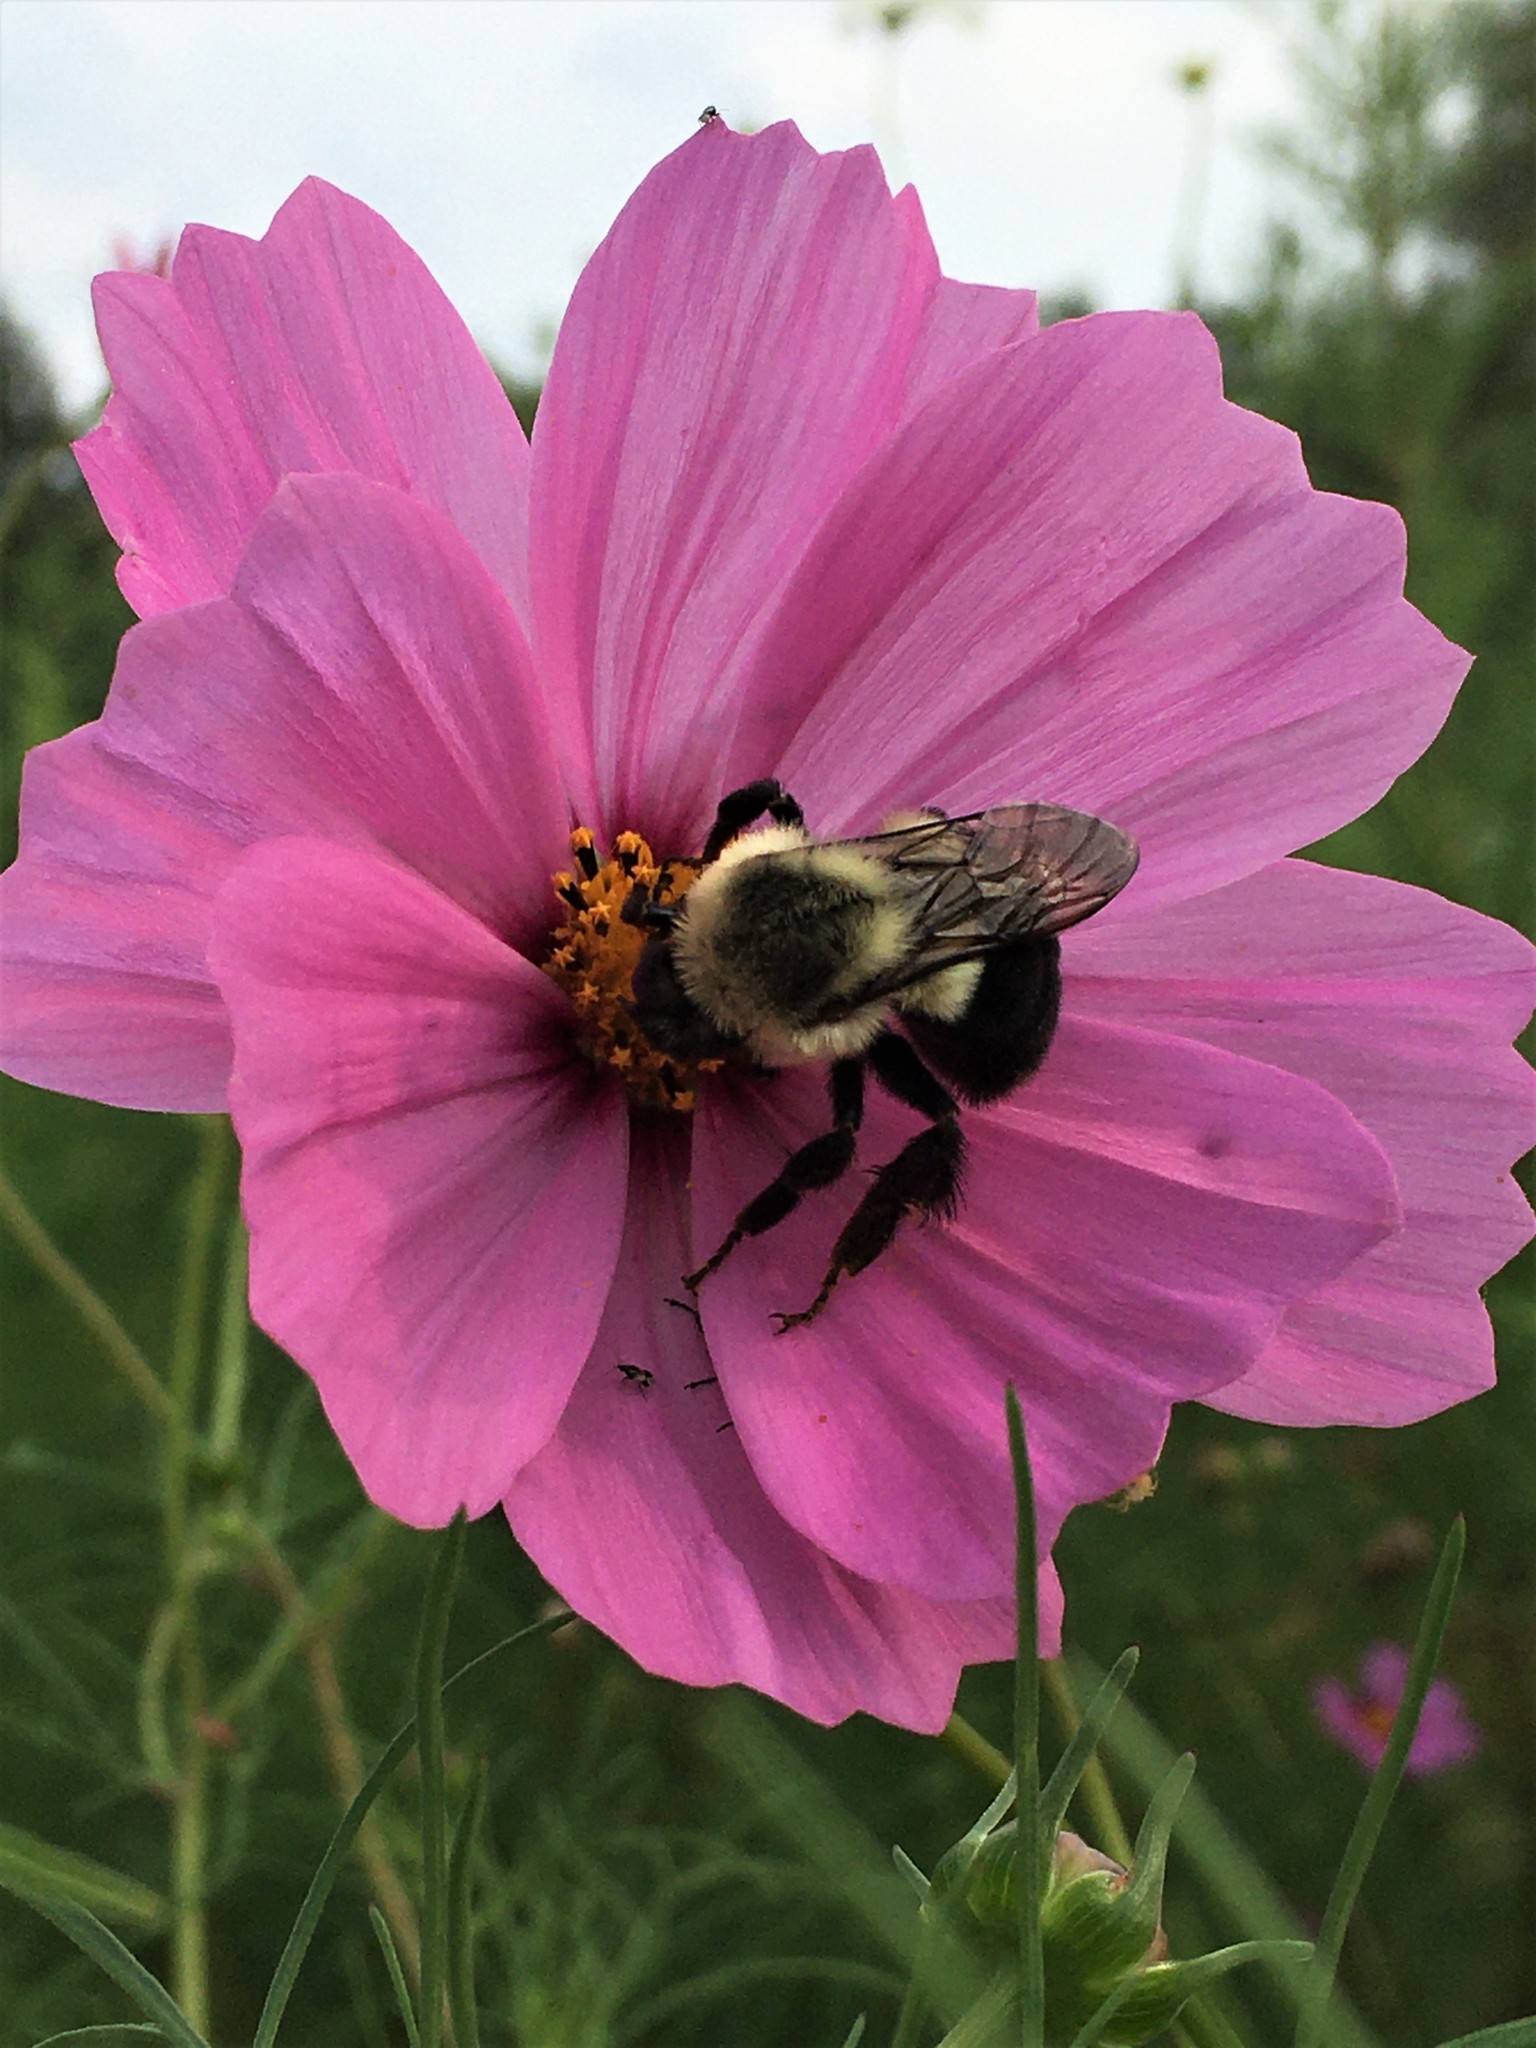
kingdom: Animalia
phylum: Arthropoda
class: Insecta
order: Hymenoptera
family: Apidae
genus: Bombus
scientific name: Bombus impatiens
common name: Common eastern bumble bee
